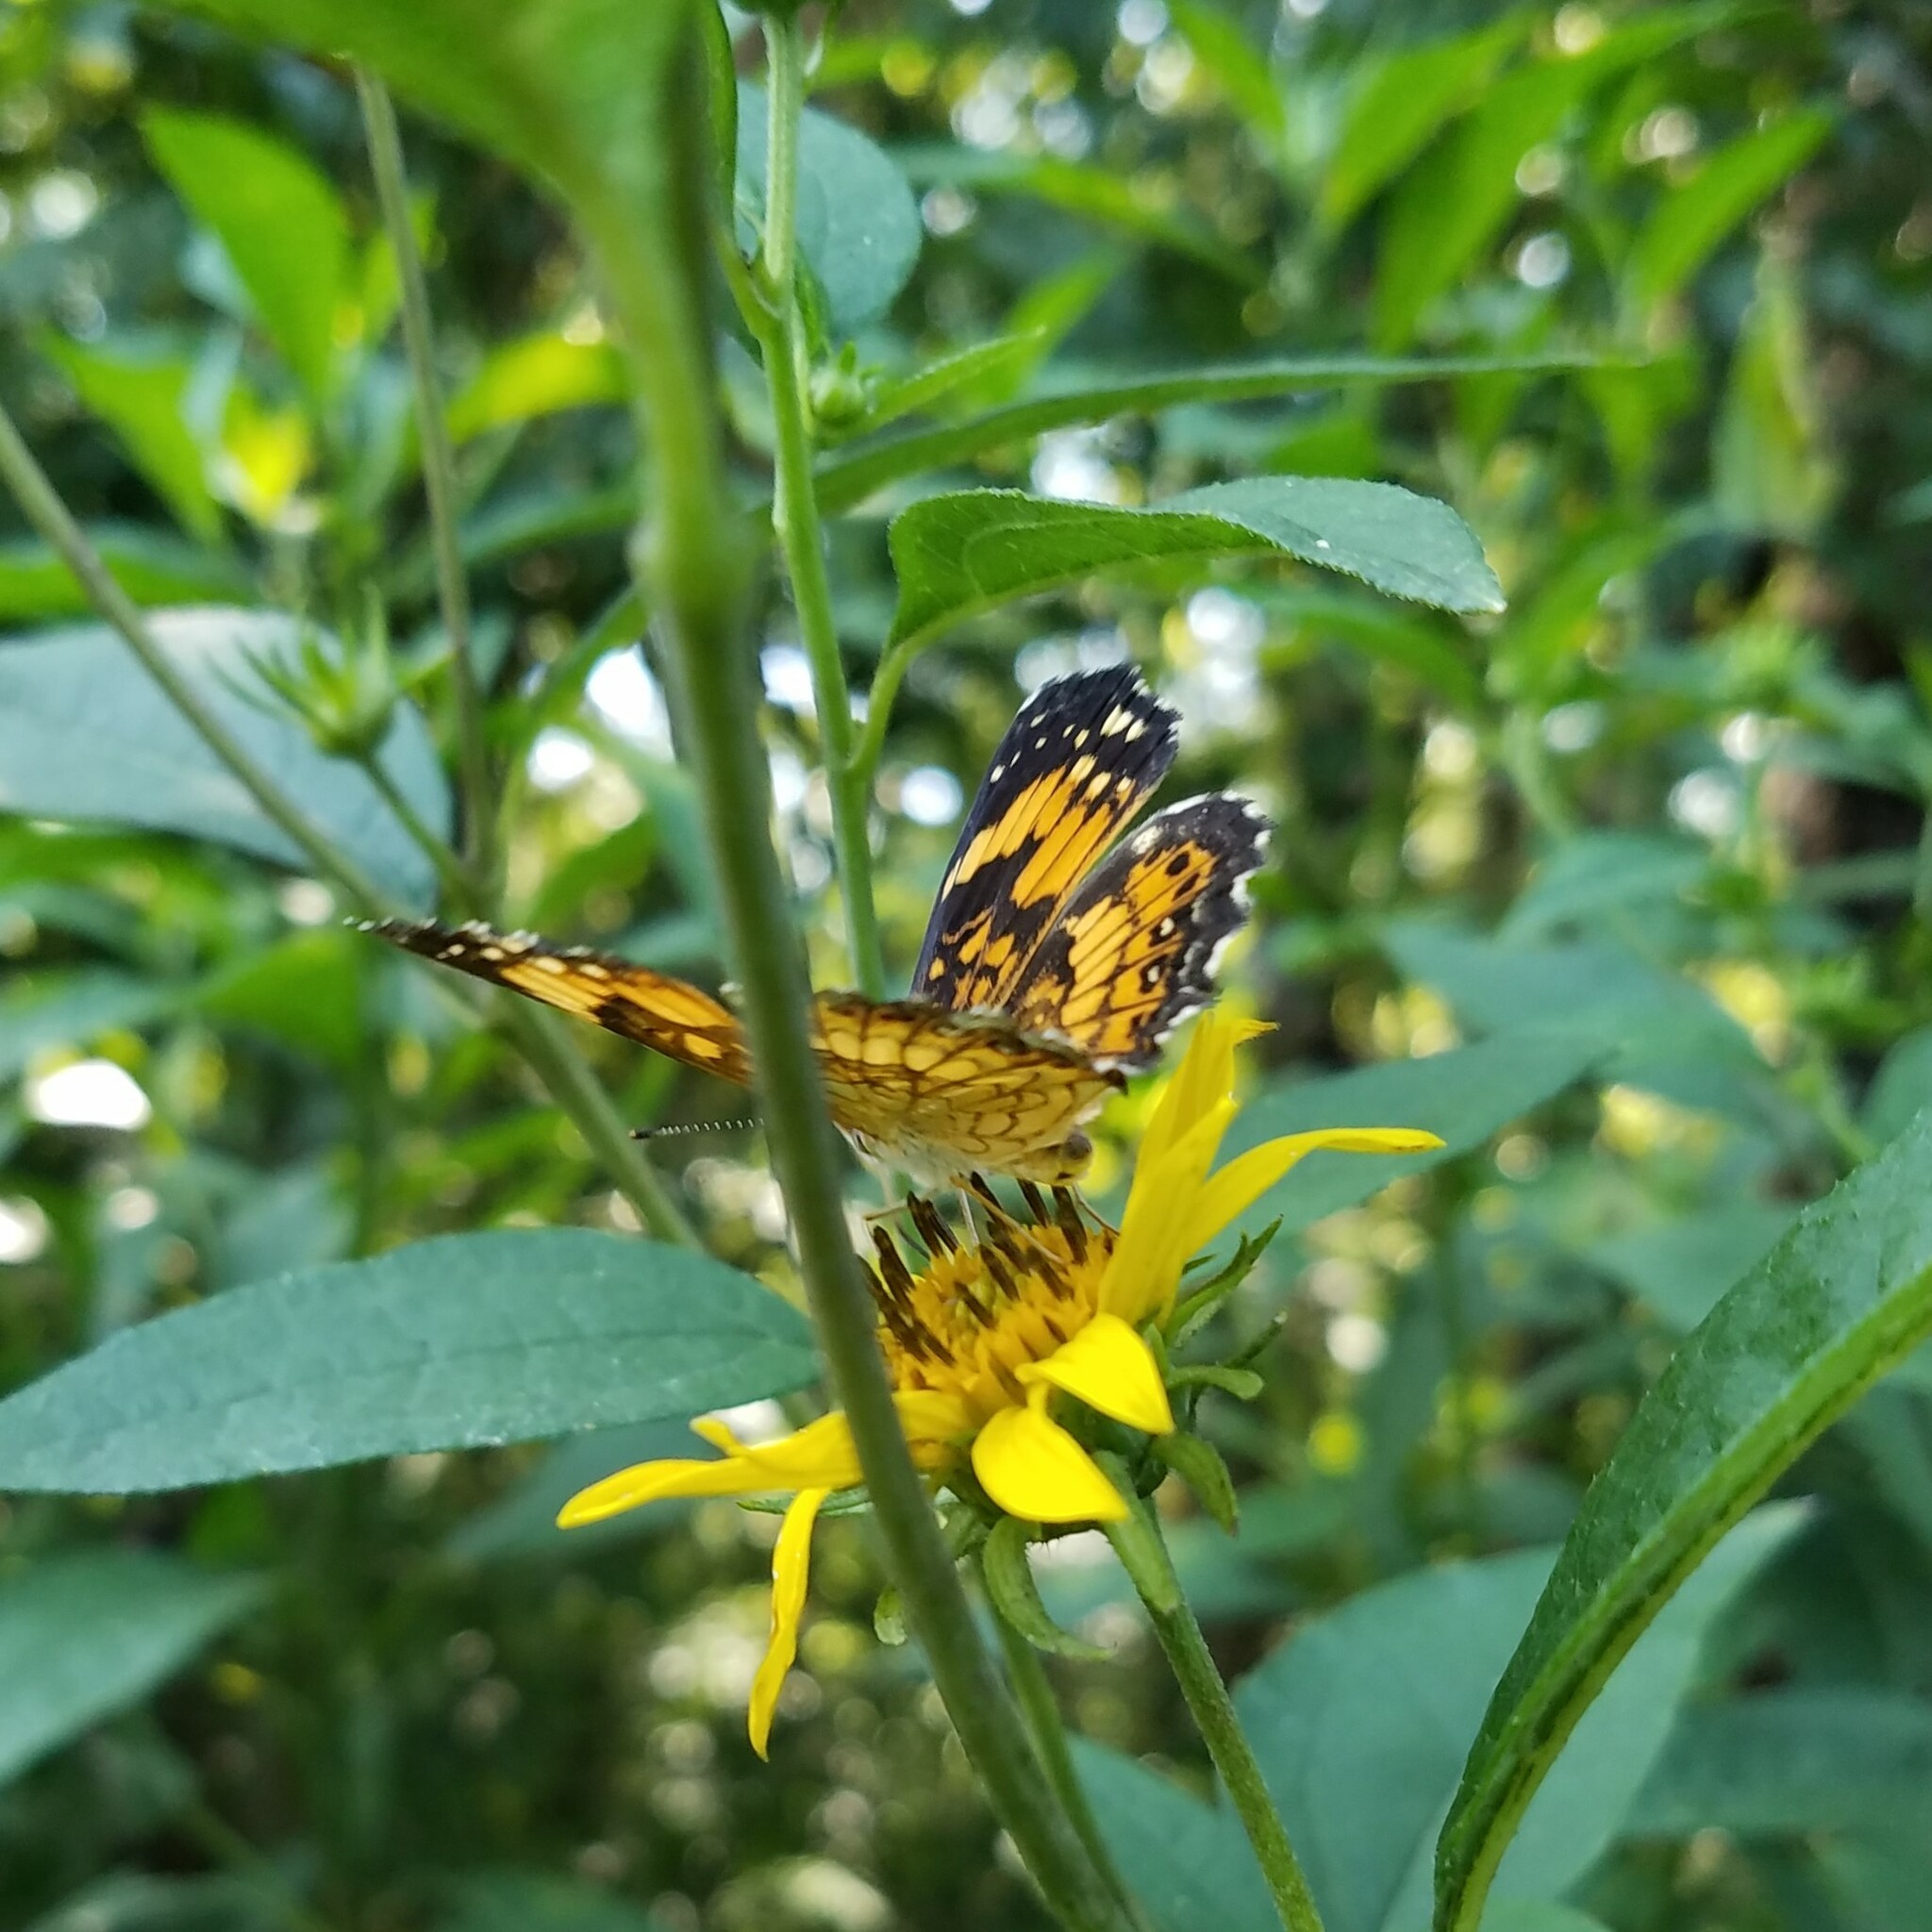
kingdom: Animalia
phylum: Arthropoda
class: Insecta
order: Lepidoptera
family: Nymphalidae
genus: Chlosyne
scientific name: Chlosyne nycteis
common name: Silvery checkerspot
